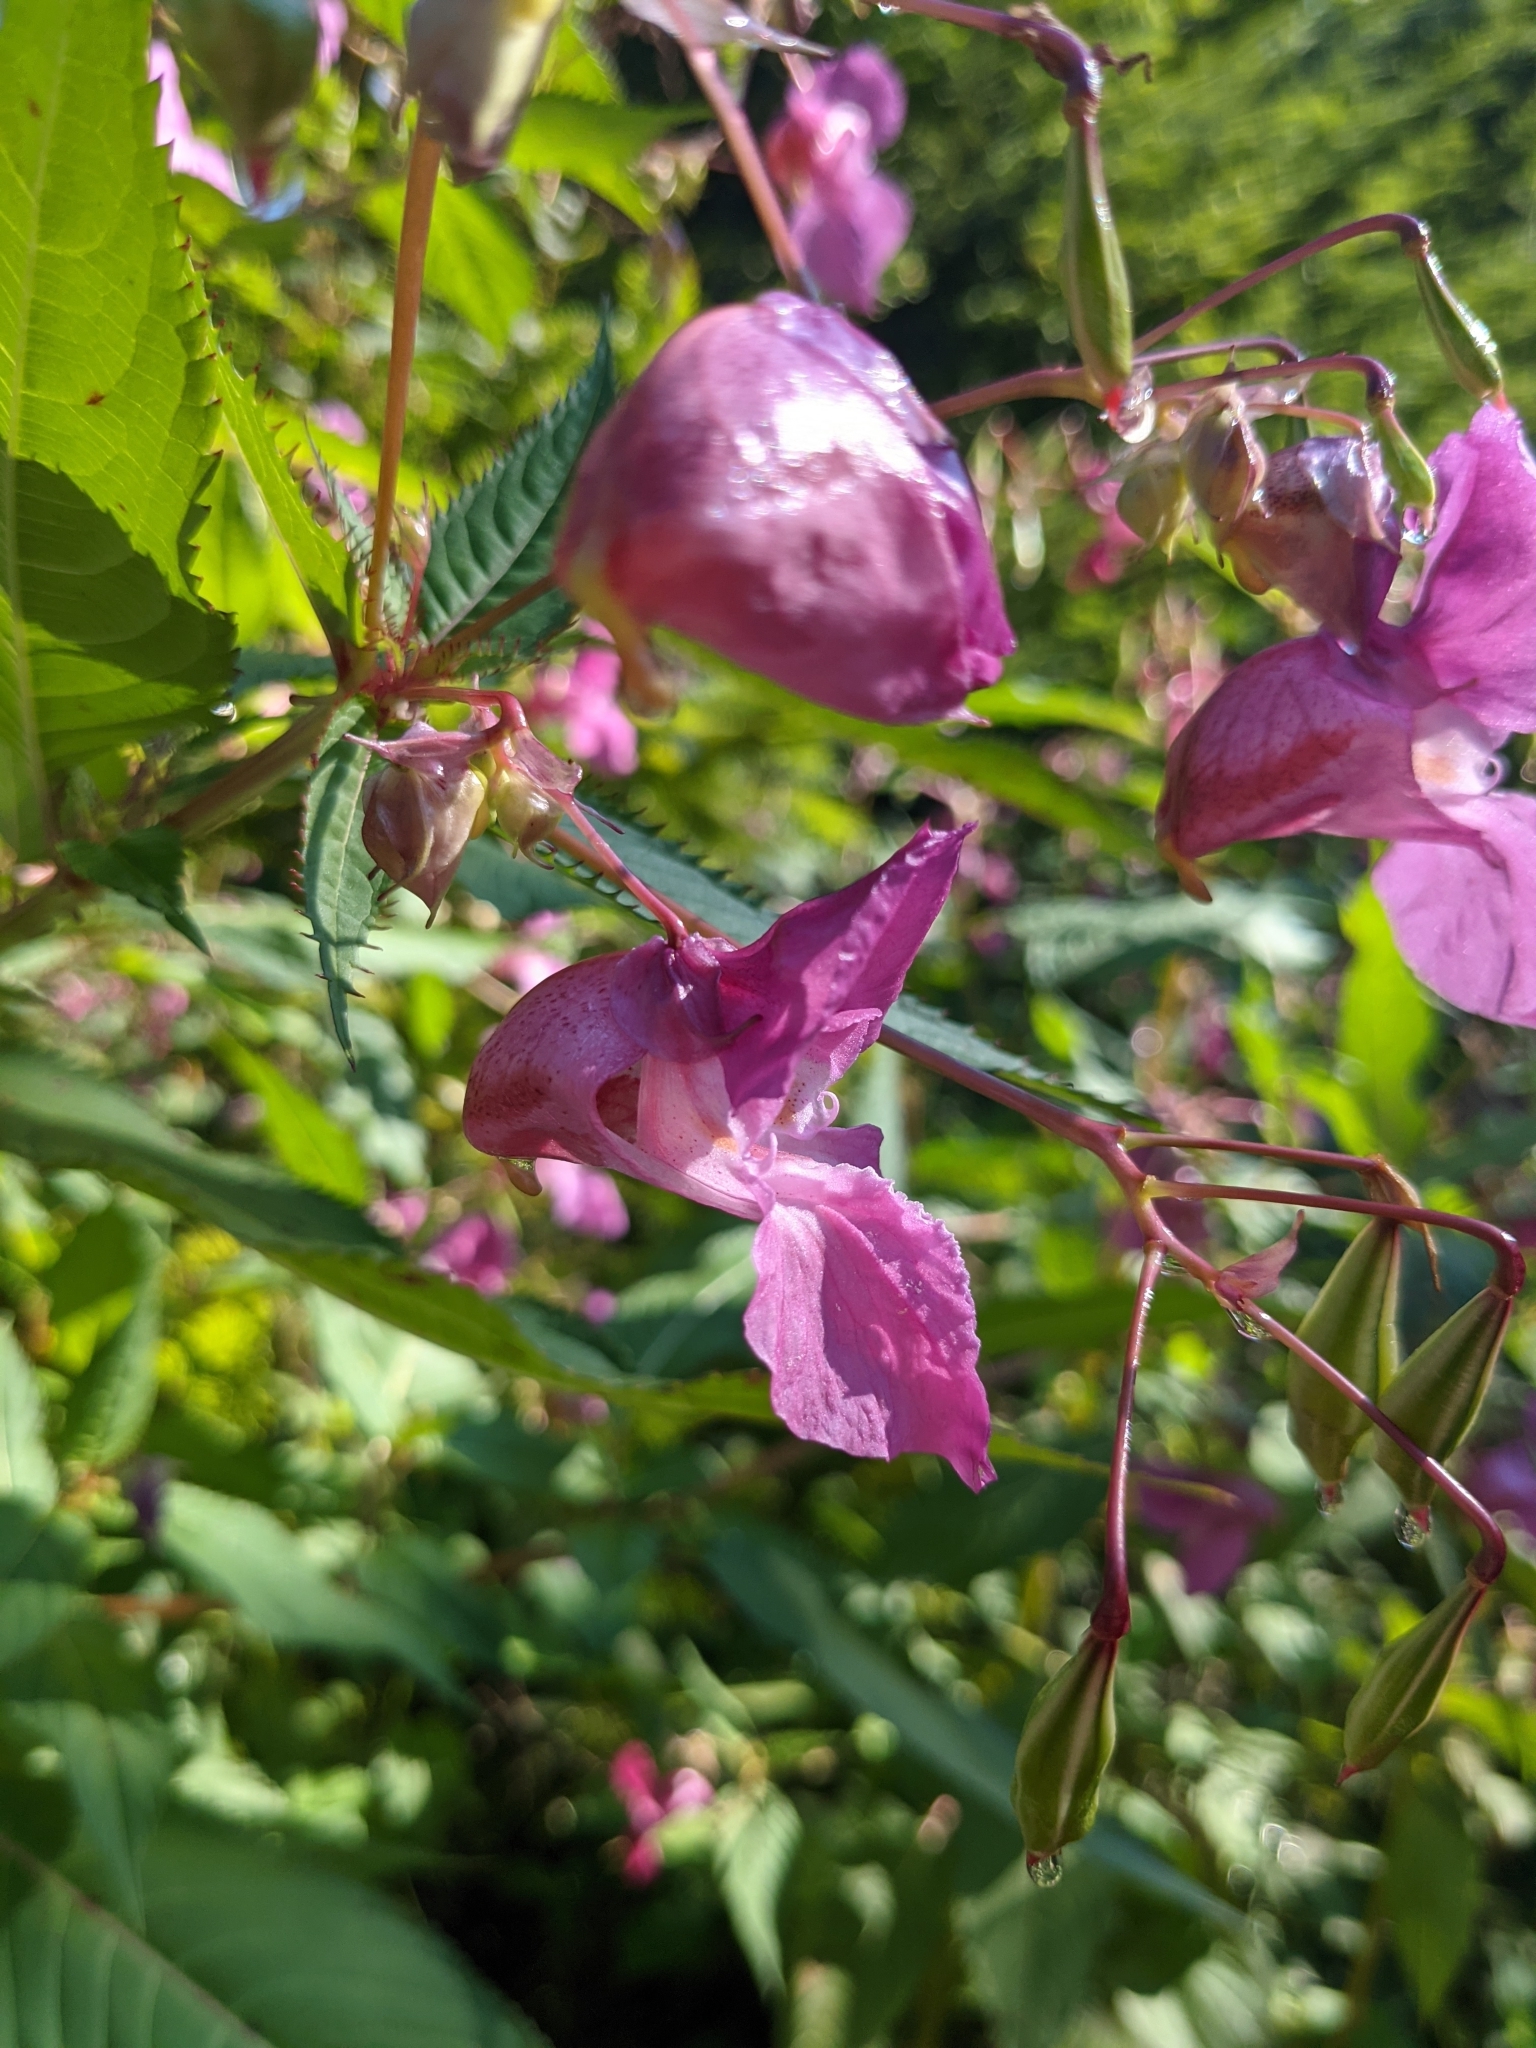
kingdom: Plantae
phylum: Tracheophyta
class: Magnoliopsida
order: Ericales
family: Balsaminaceae
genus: Impatiens
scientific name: Impatiens glandulifera
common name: Himalayan balsam
